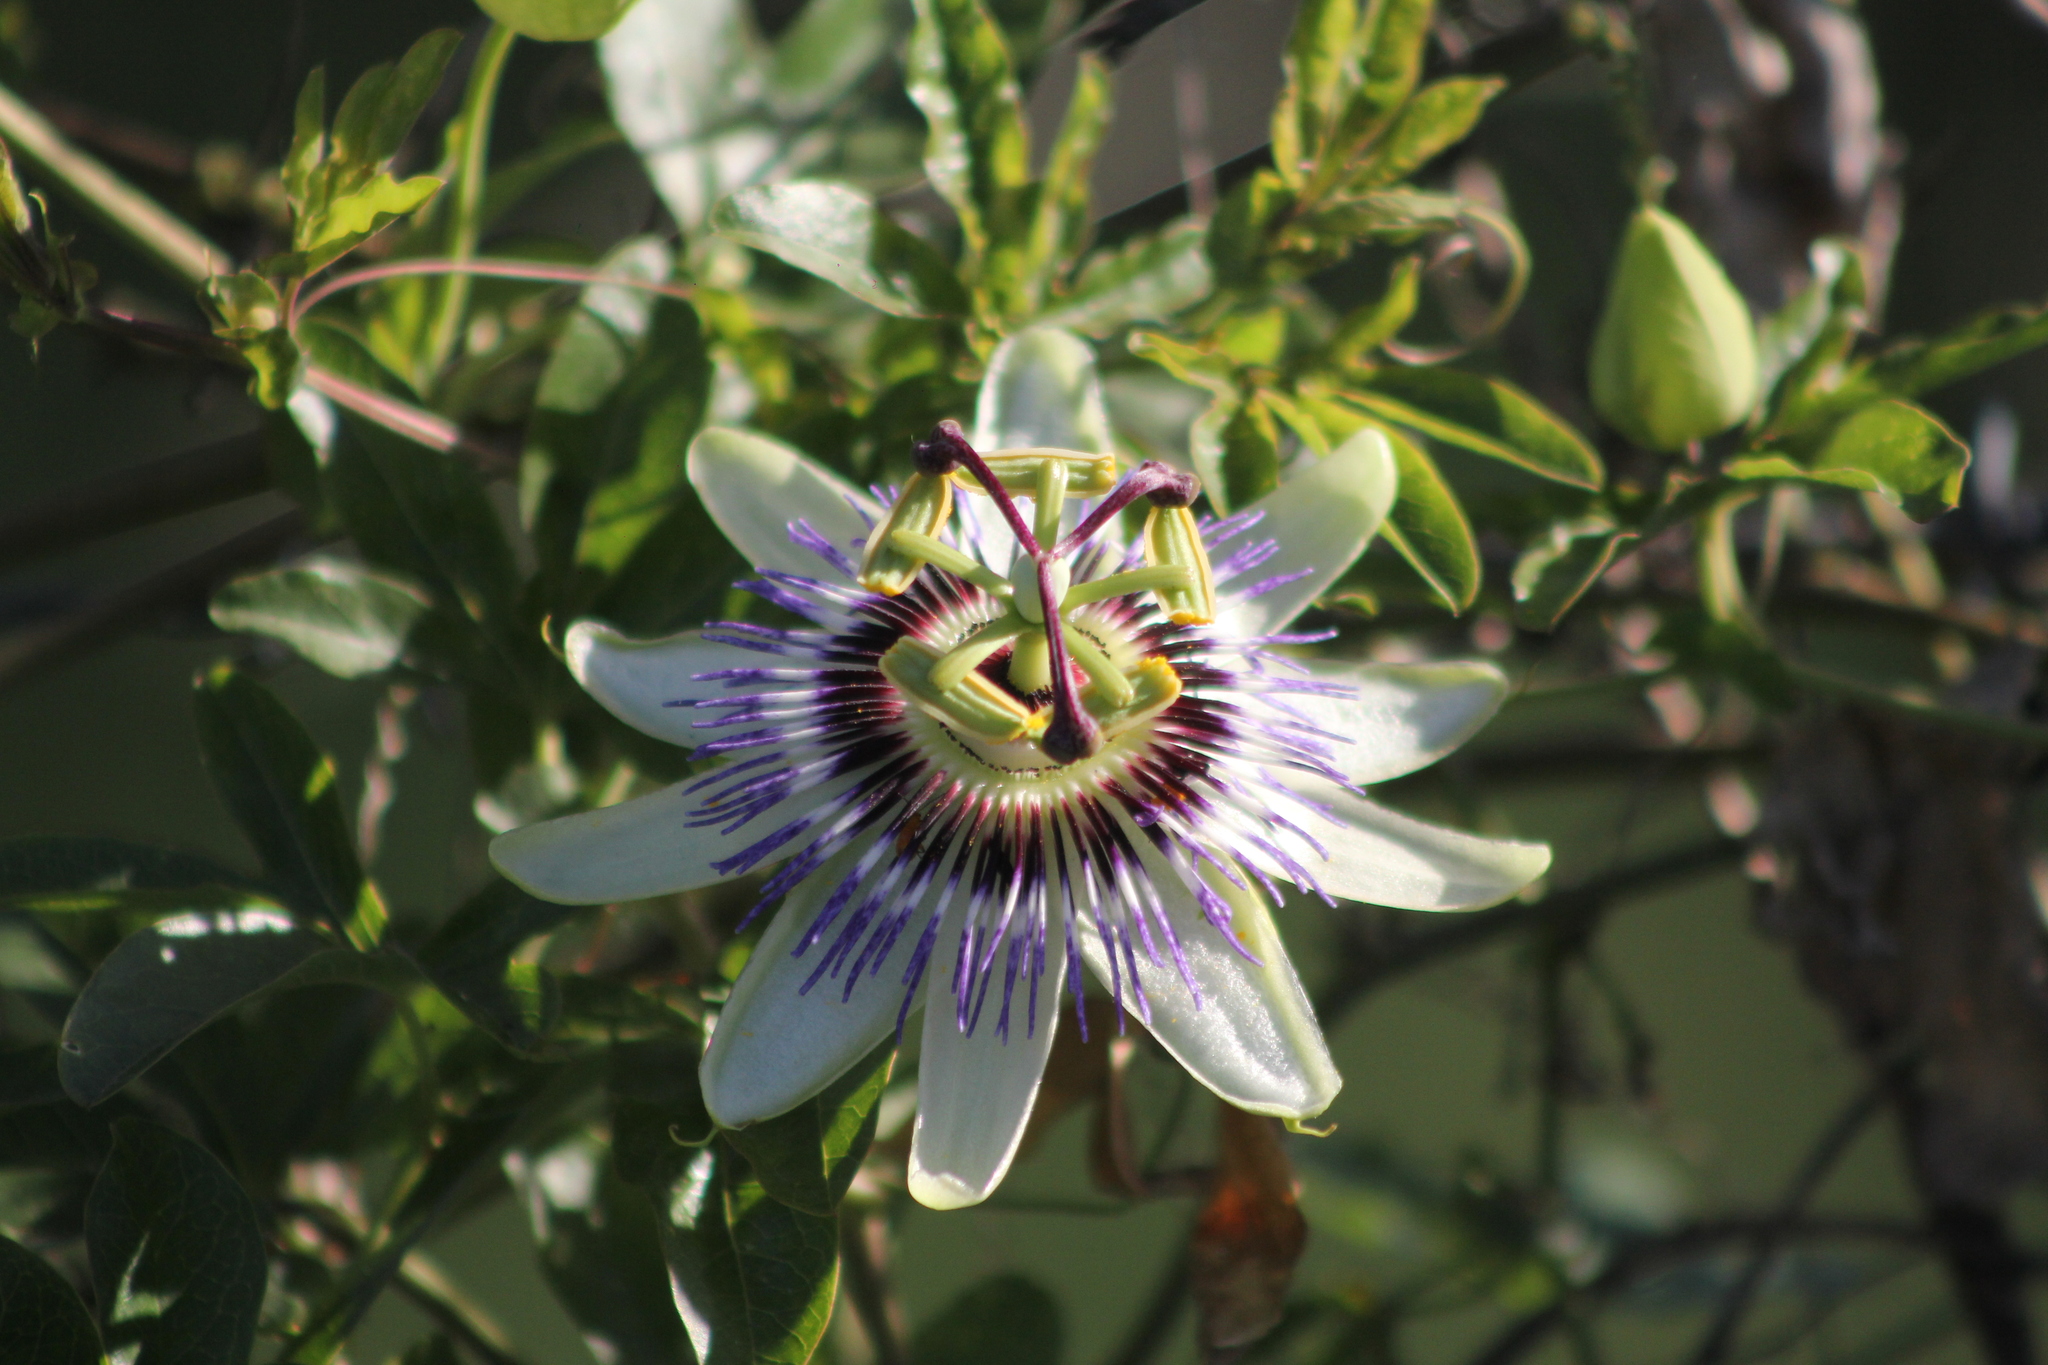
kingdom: Plantae
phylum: Tracheophyta
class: Magnoliopsida
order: Malpighiales
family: Passifloraceae
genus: Passiflora
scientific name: Passiflora caerulea
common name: Blue passionflower
